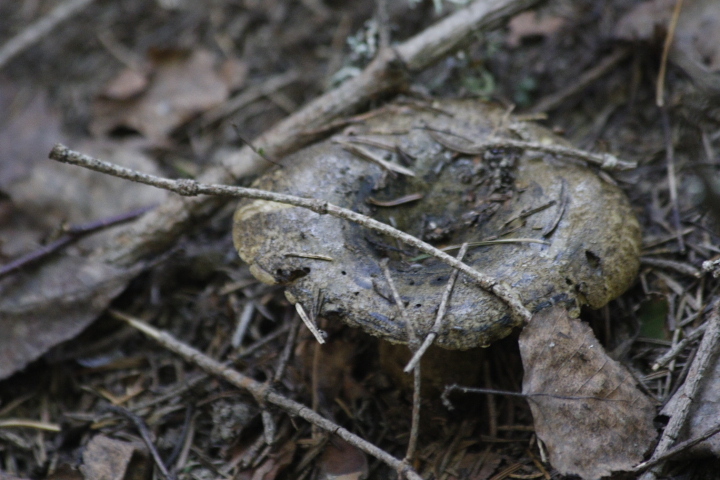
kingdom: Fungi
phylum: Basidiomycota
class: Agaricomycetes
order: Russulales
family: Russulaceae
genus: Lactarius
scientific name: Lactarius turpis
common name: Ugly milk-cap
